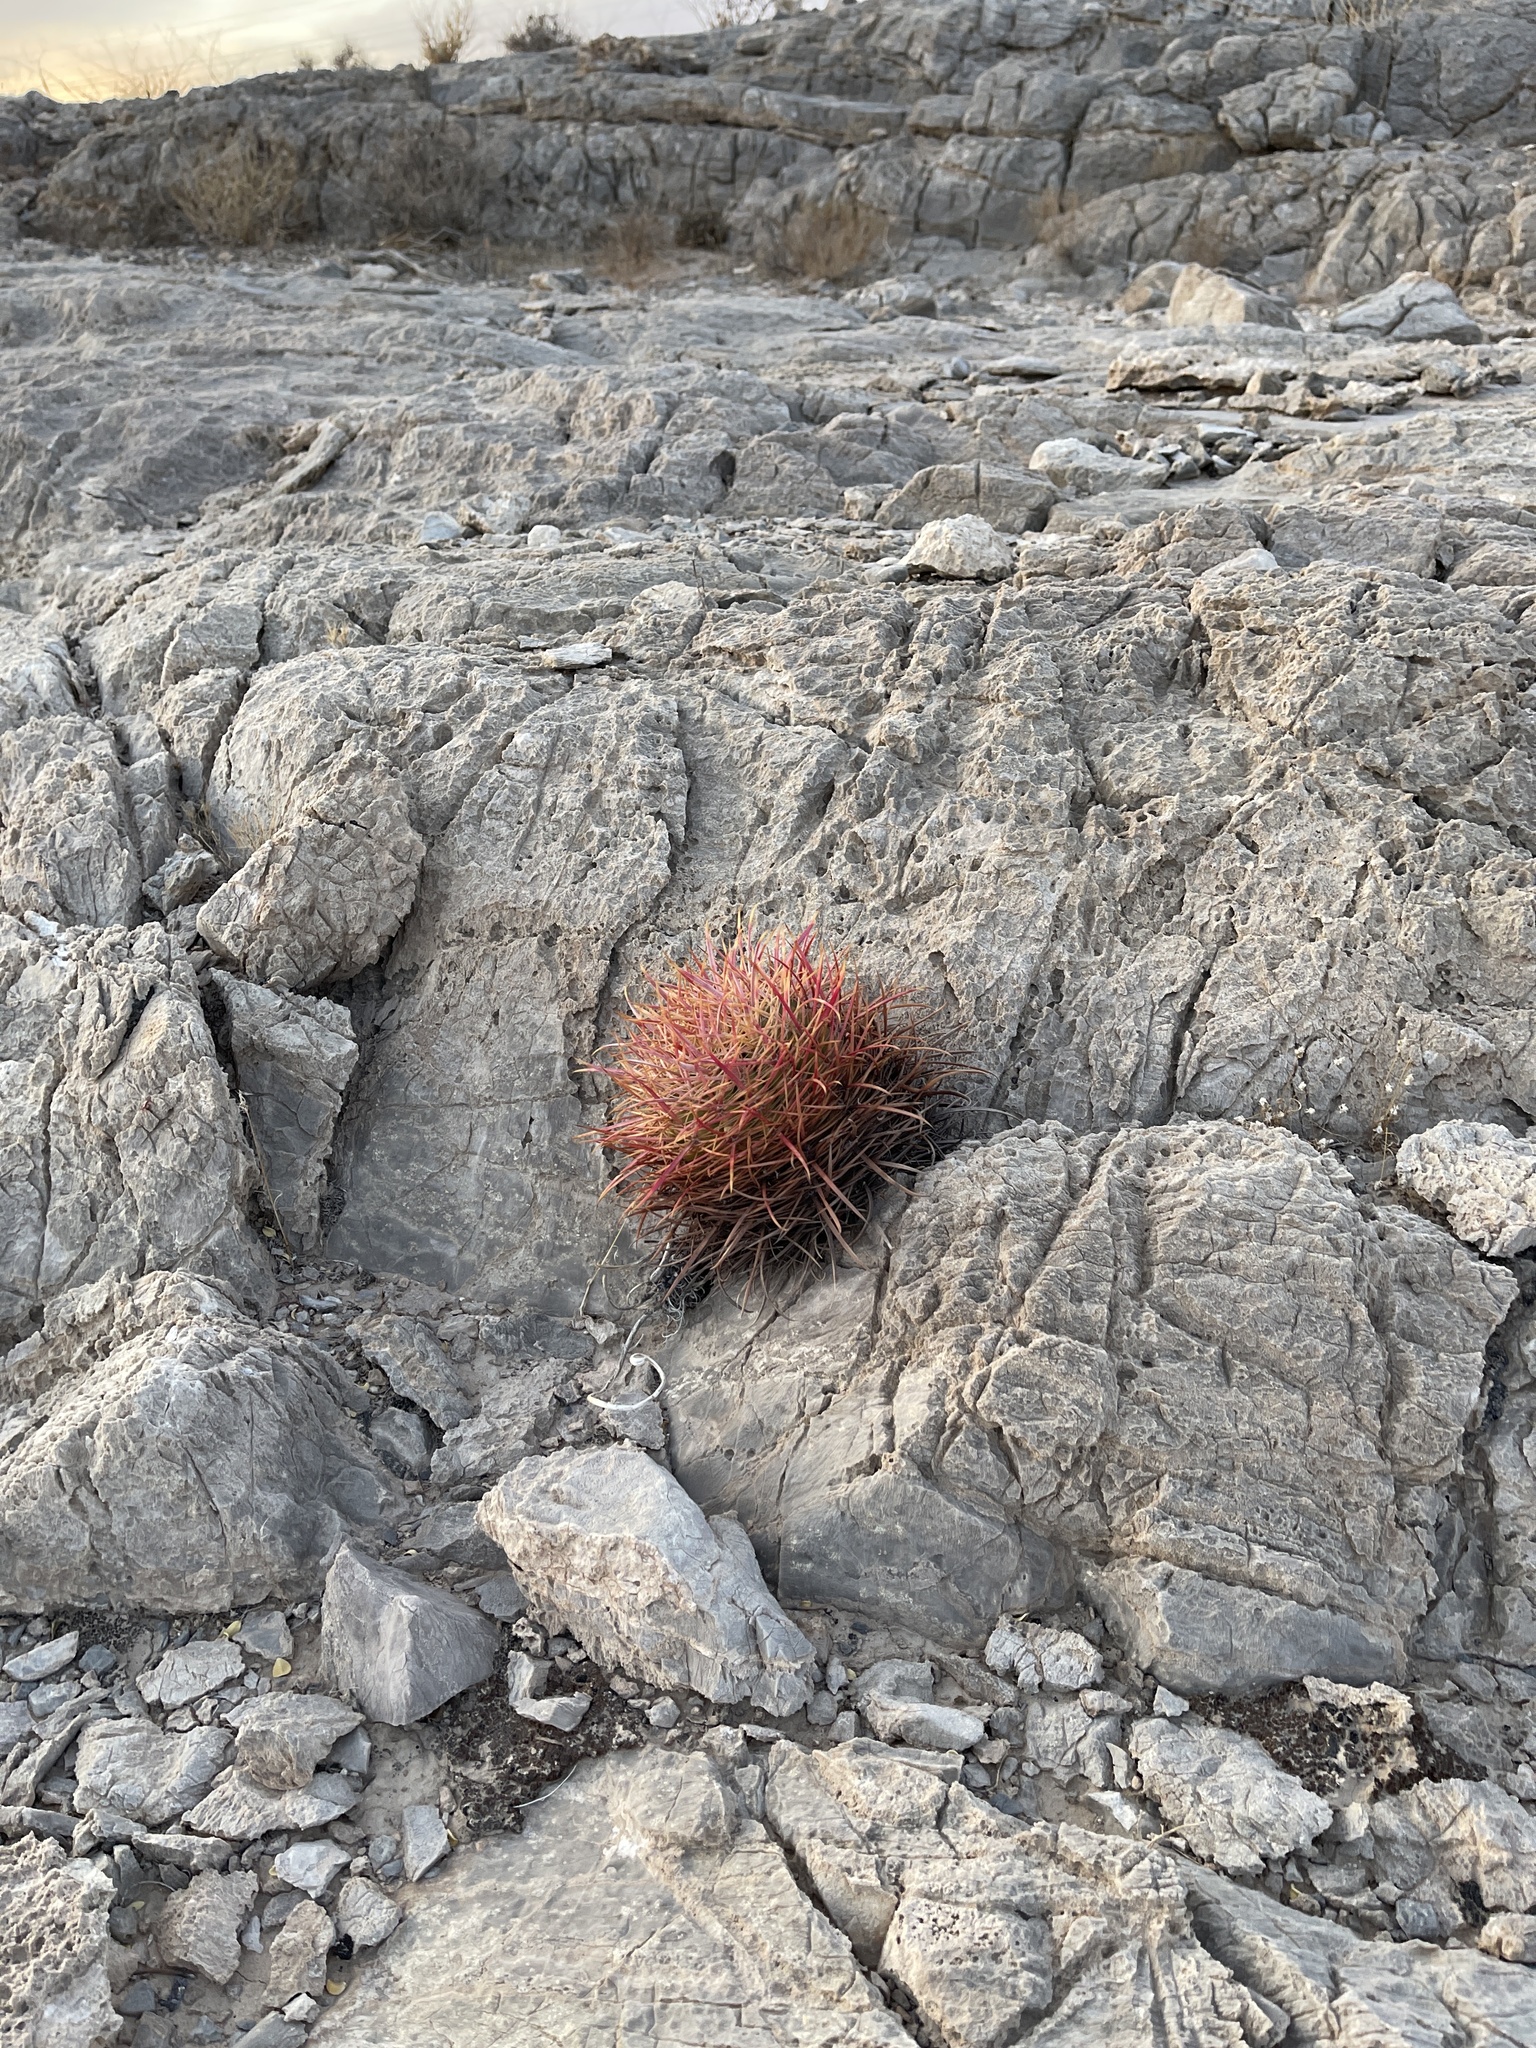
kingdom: Plantae
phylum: Tracheophyta
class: Magnoliopsida
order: Caryophyllales
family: Cactaceae
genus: Ferocactus
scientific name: Ferocactus cylindraceus
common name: California barrel cactus
